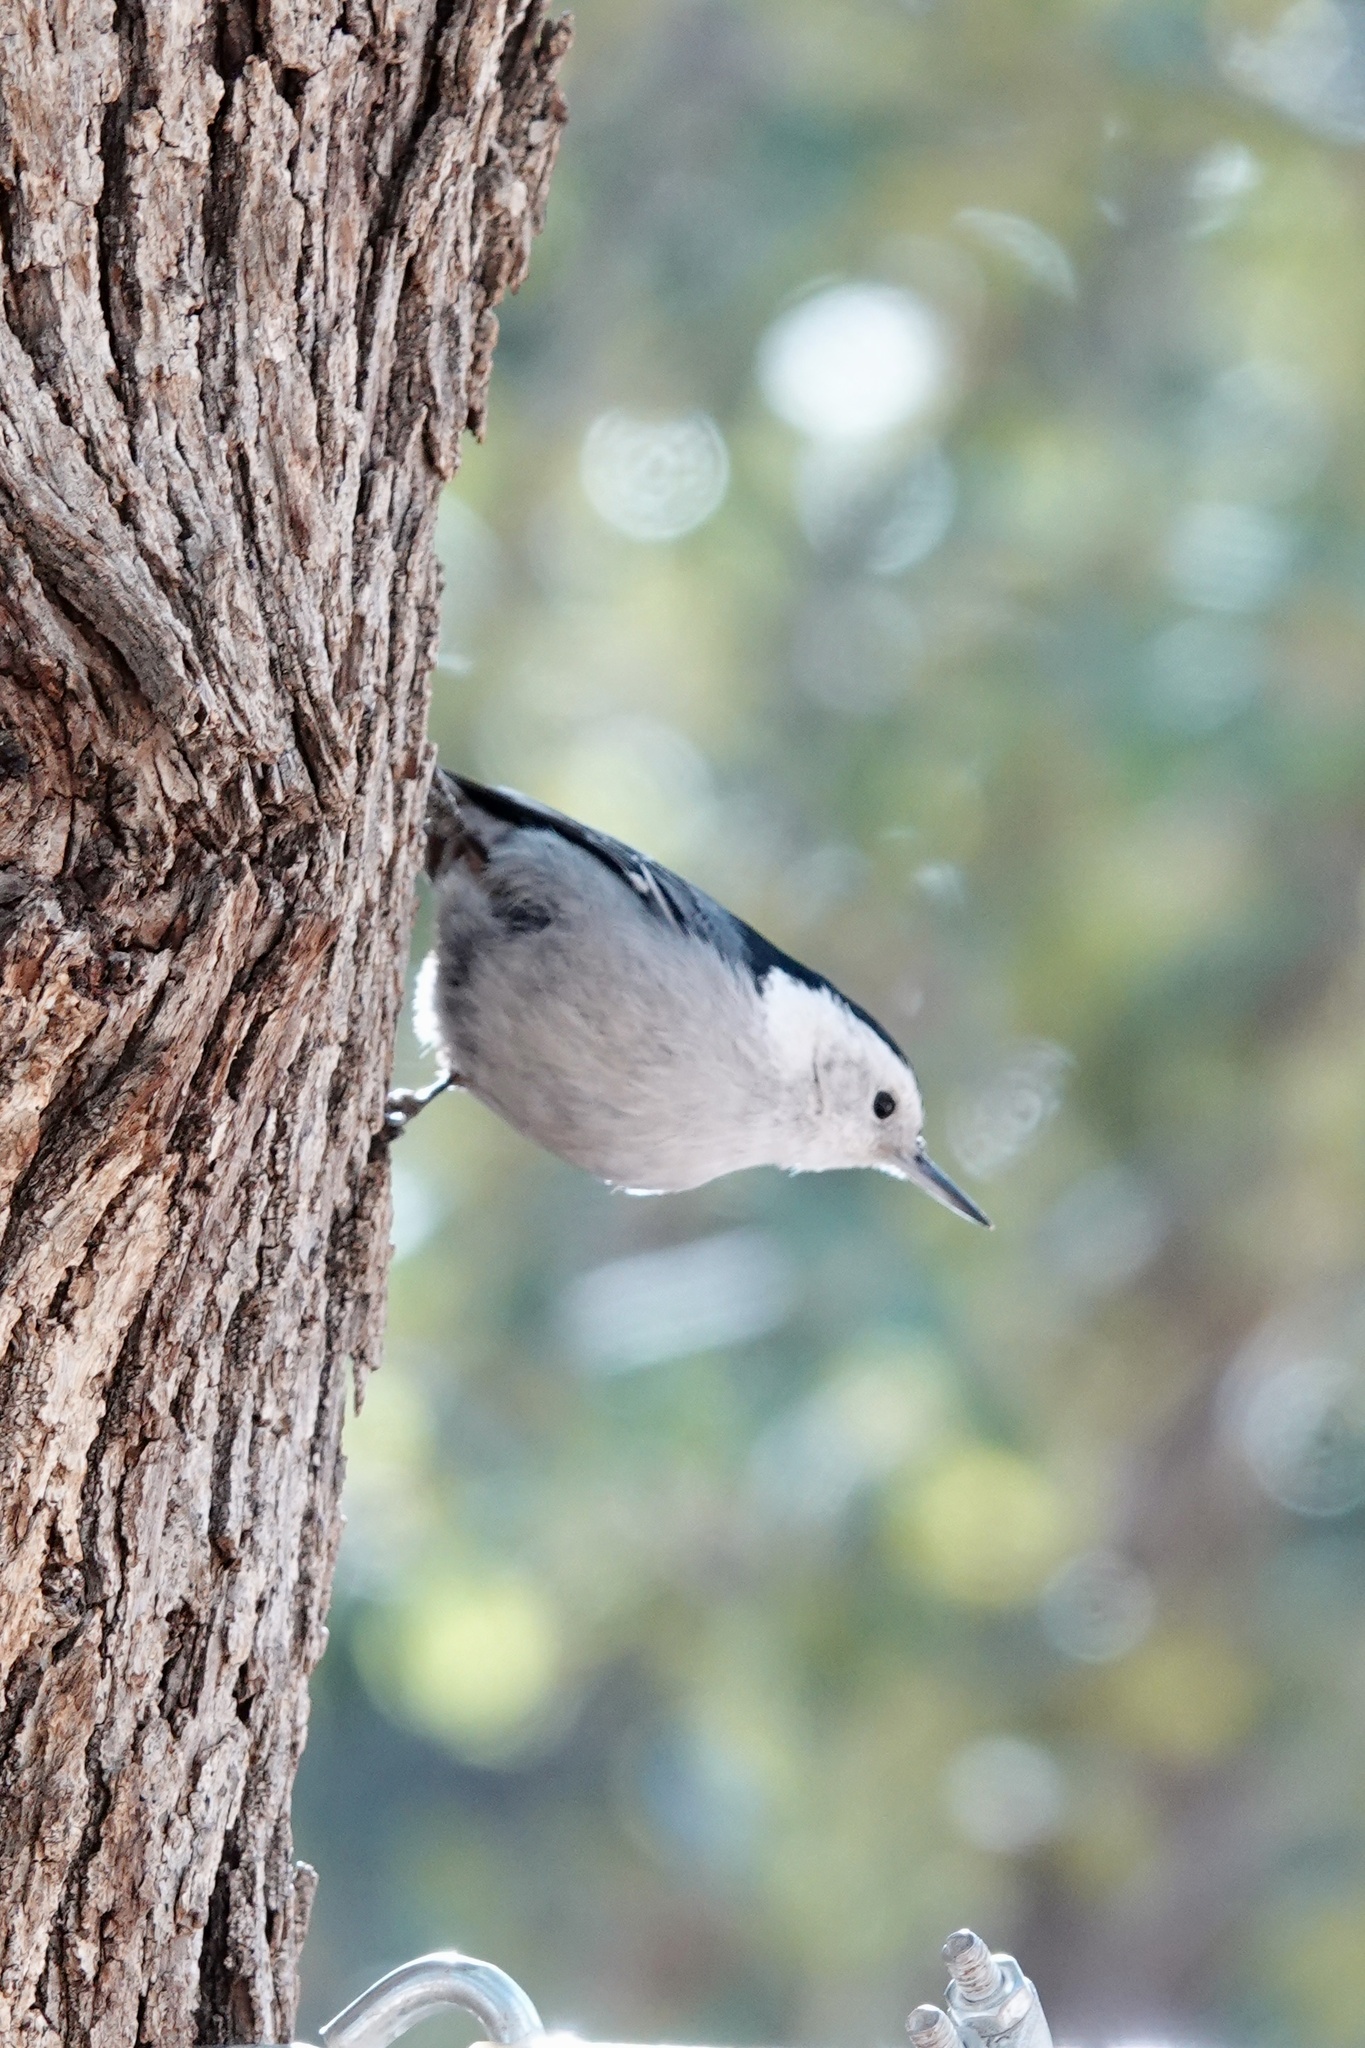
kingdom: Animalia
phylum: Chordata
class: Aves
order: Passeriformes
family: Sittidae
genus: Sitta
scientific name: Sitta carolinensis
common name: White-breasted nuthatch
